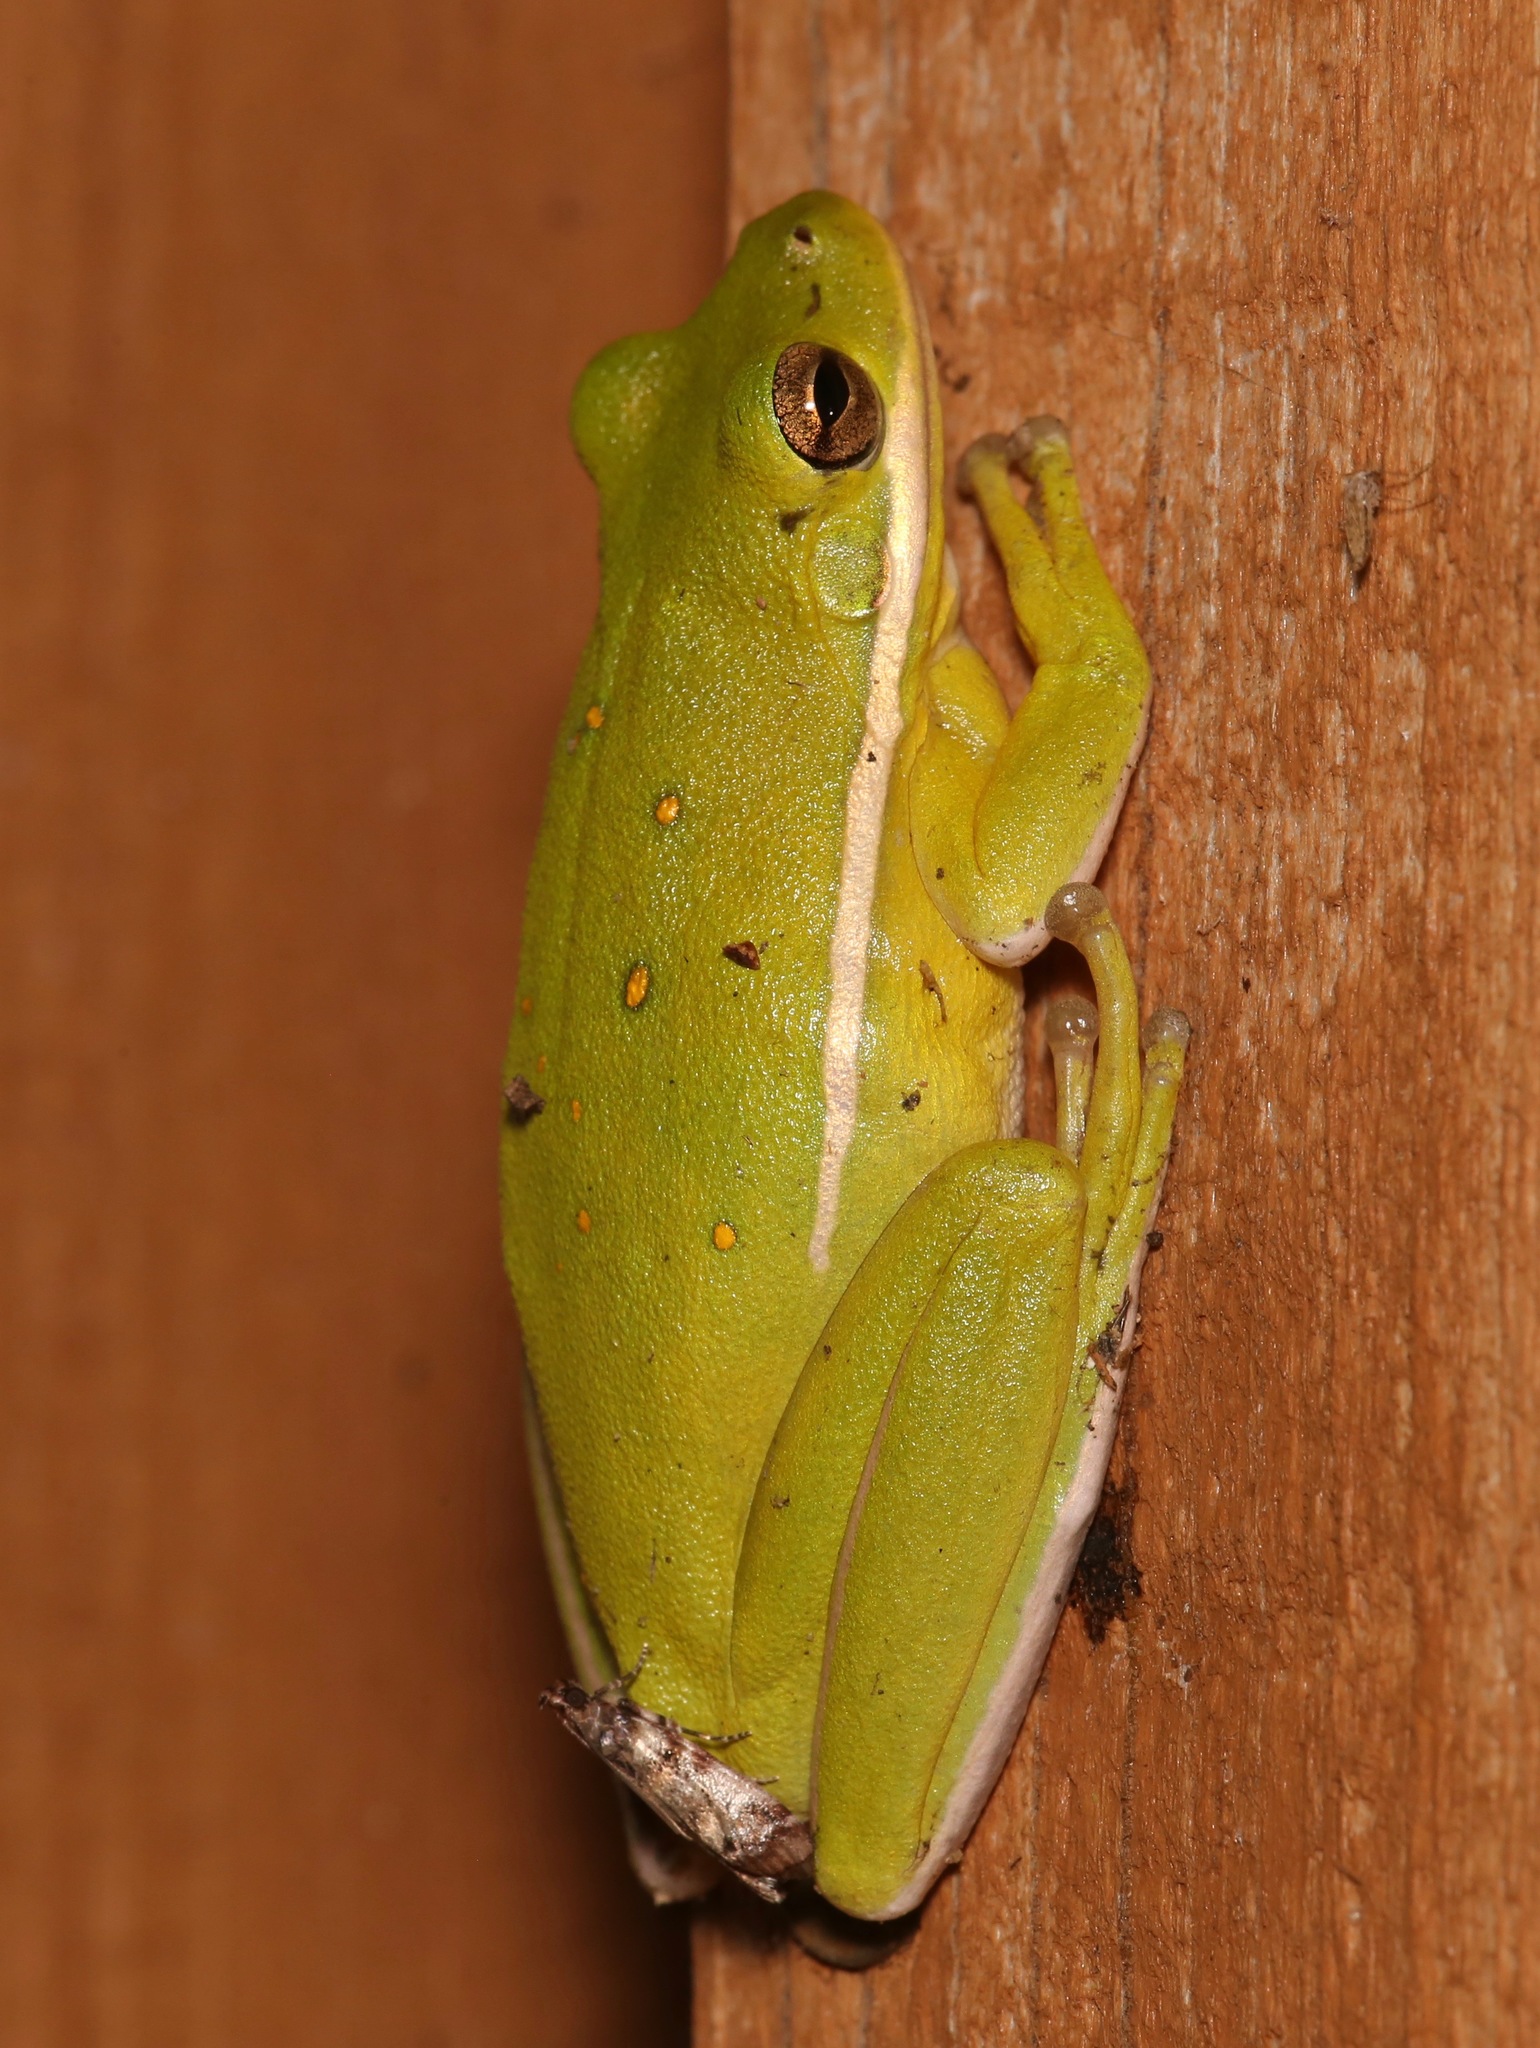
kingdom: Animalia
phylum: Chordata
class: Amphibia
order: Anura
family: Hylidae
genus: Dryophytes
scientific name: Dryophytes cinereus
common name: Green treefrog
